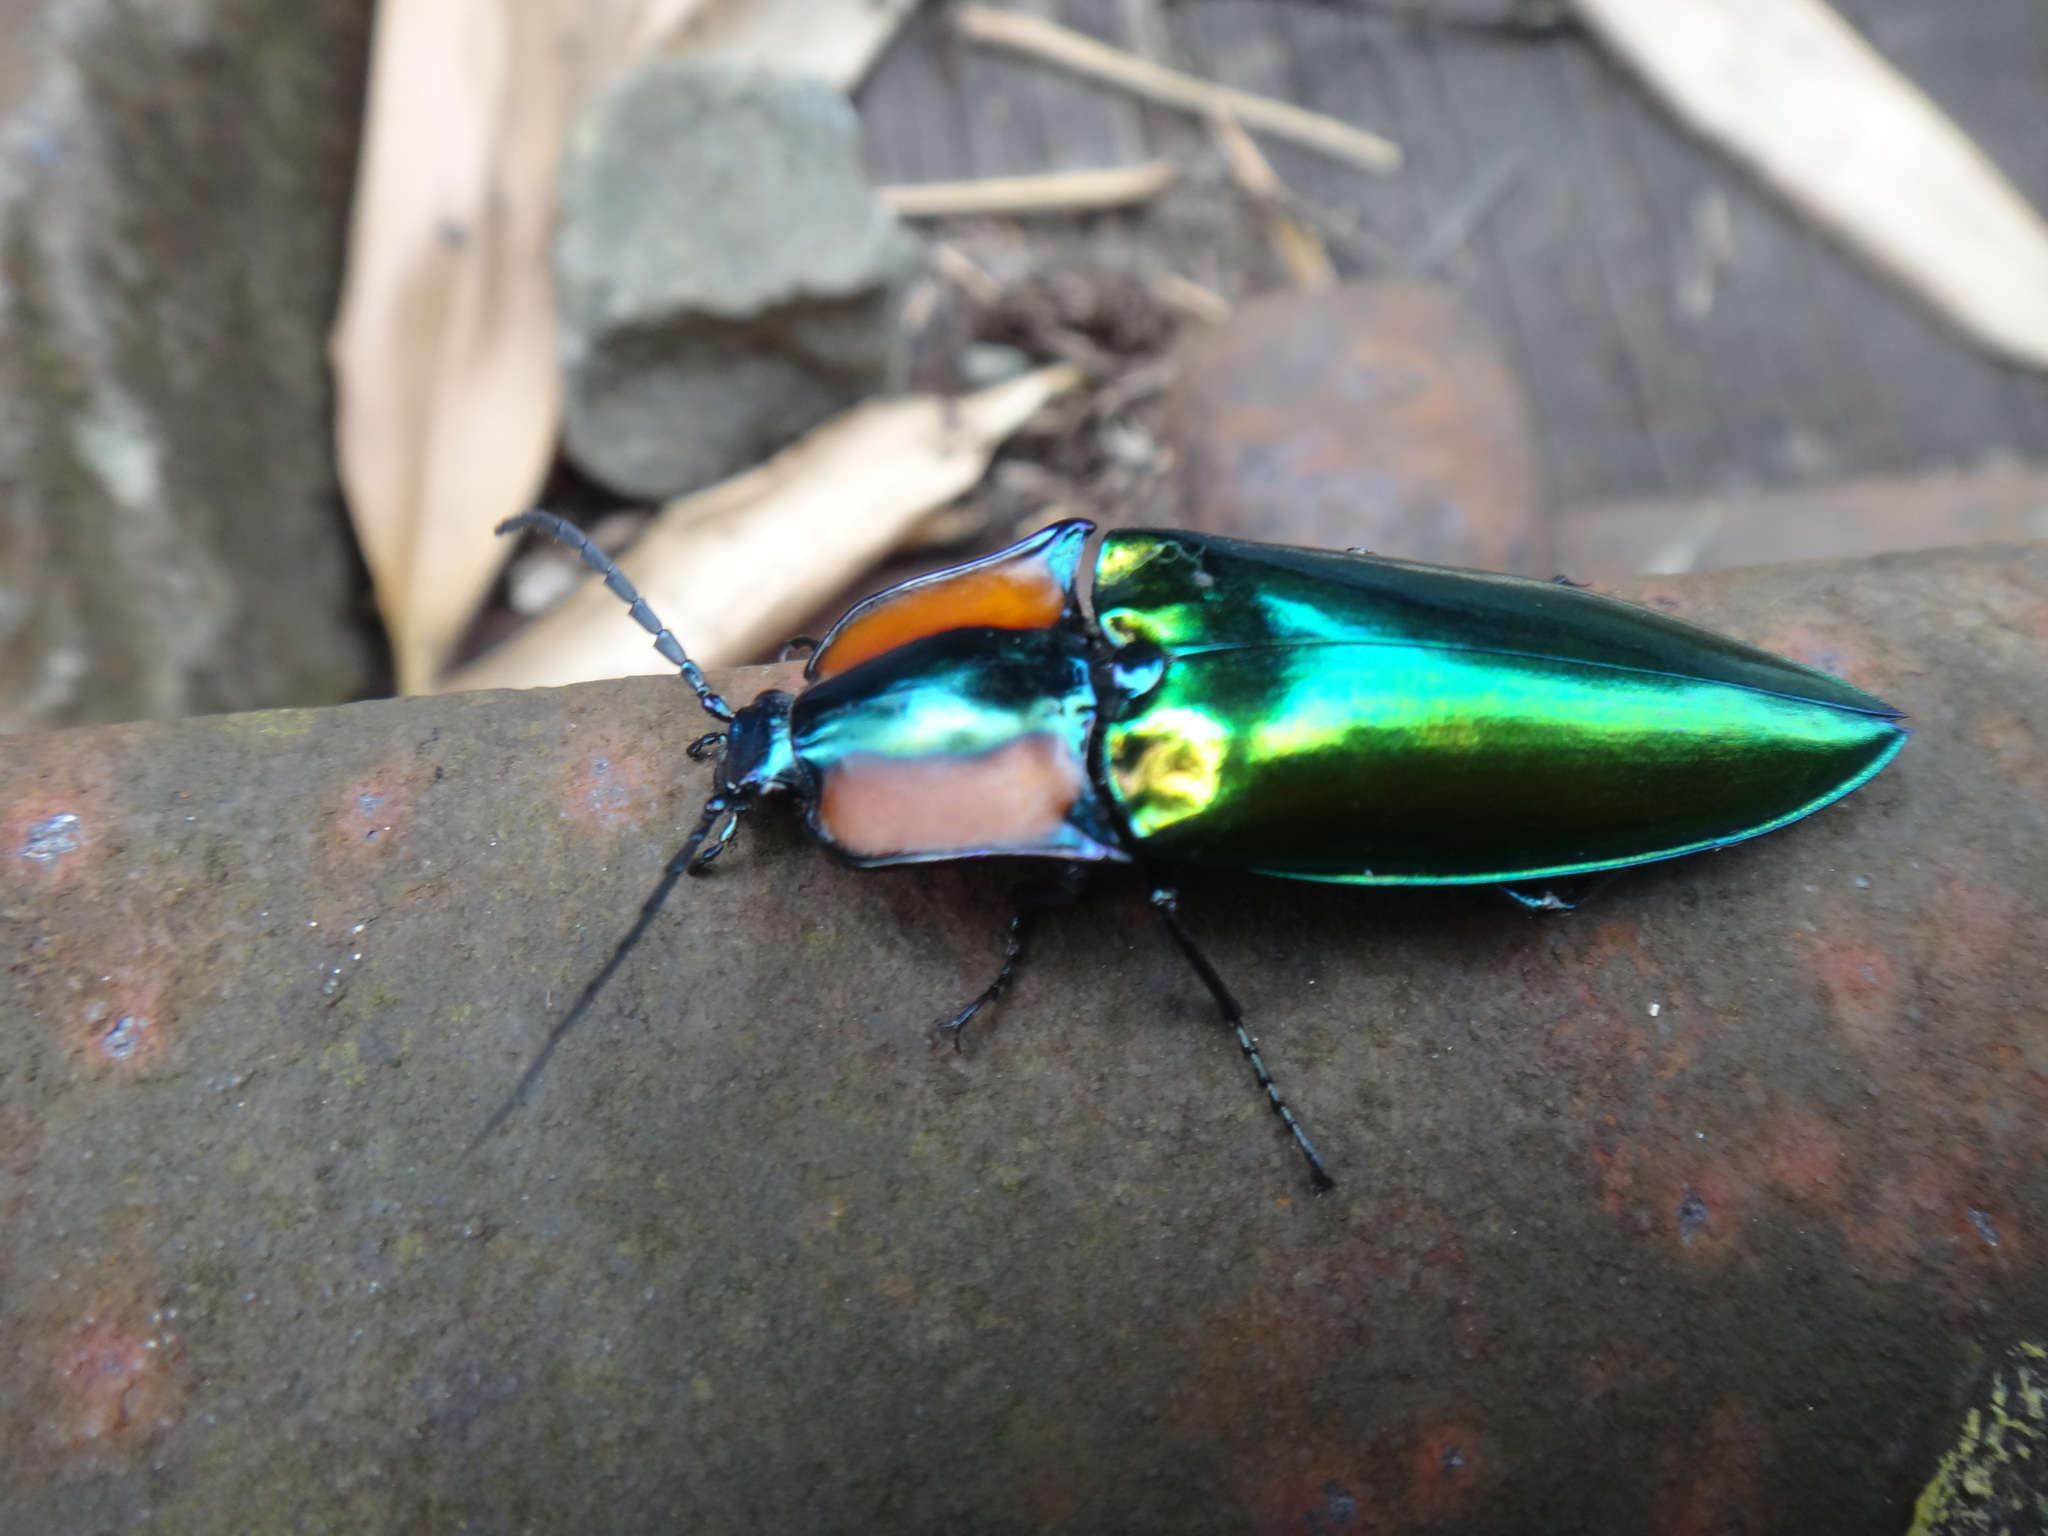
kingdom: Animalia
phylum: Arthropoda
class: Insecta
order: Coleoptera
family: Elateridae
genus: Campsosternus
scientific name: Campsosternus watanabei
